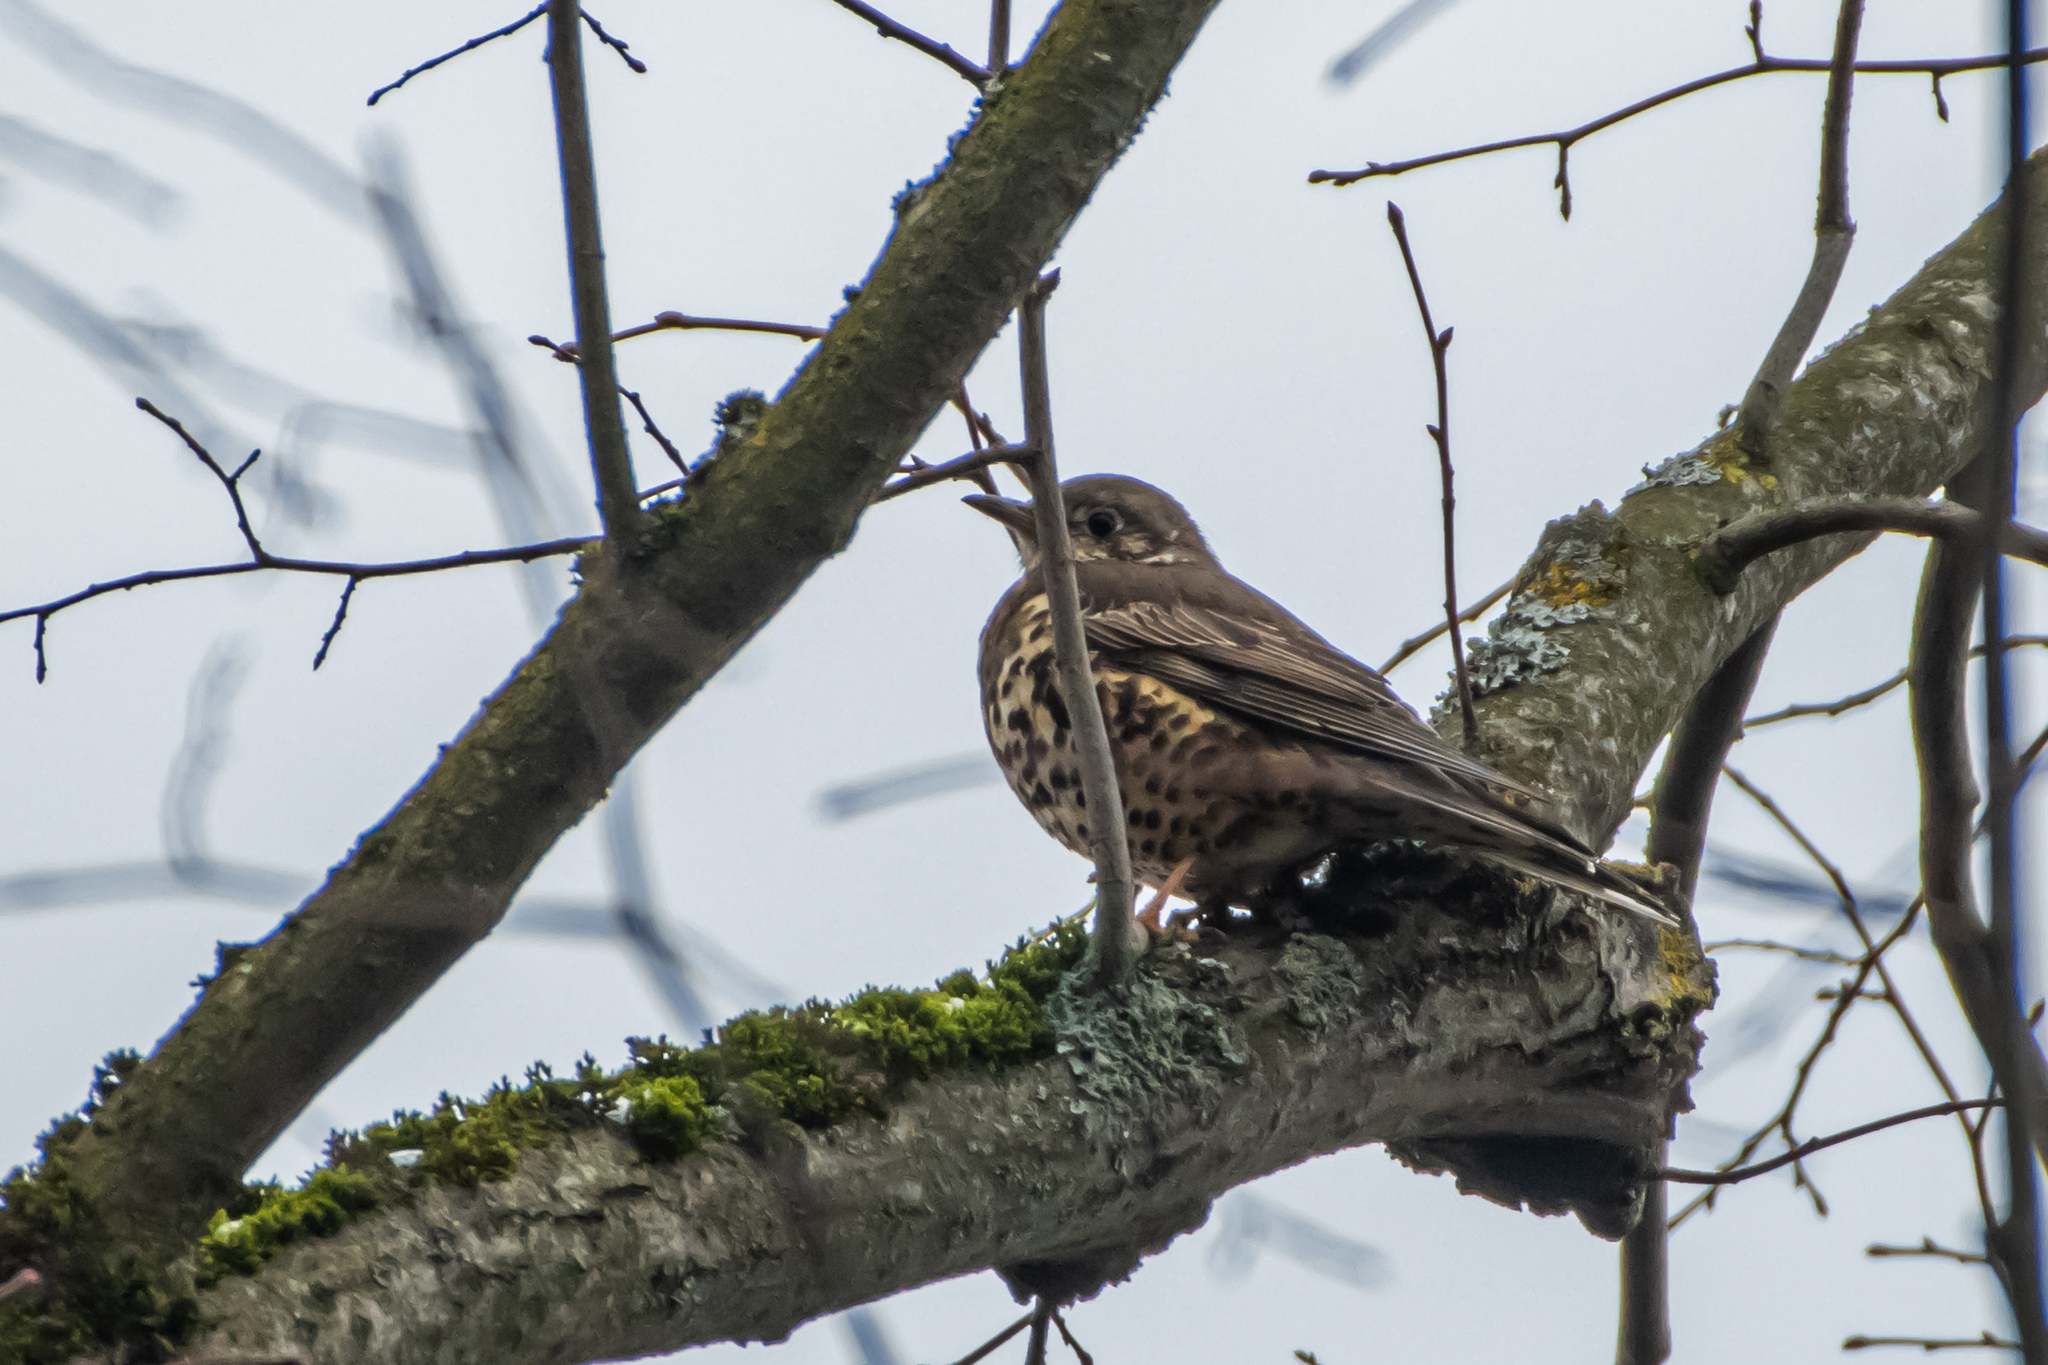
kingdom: Animalia
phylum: Chordata
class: Aves
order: Passeriformes
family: Turdidae
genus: Turdus
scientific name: Turdus viscivorus
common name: Mistle thrush
